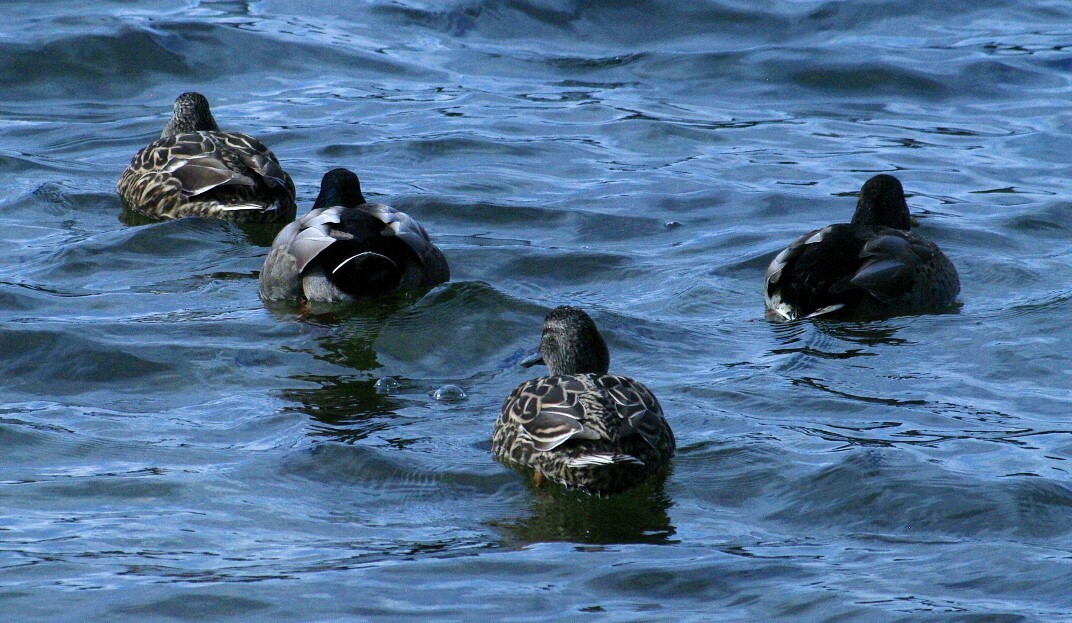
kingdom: Animalia
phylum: Chordata
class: Aves
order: Anseriformes
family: Anatidae
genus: Anas
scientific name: Anas platyrhynchos
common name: Mallard
